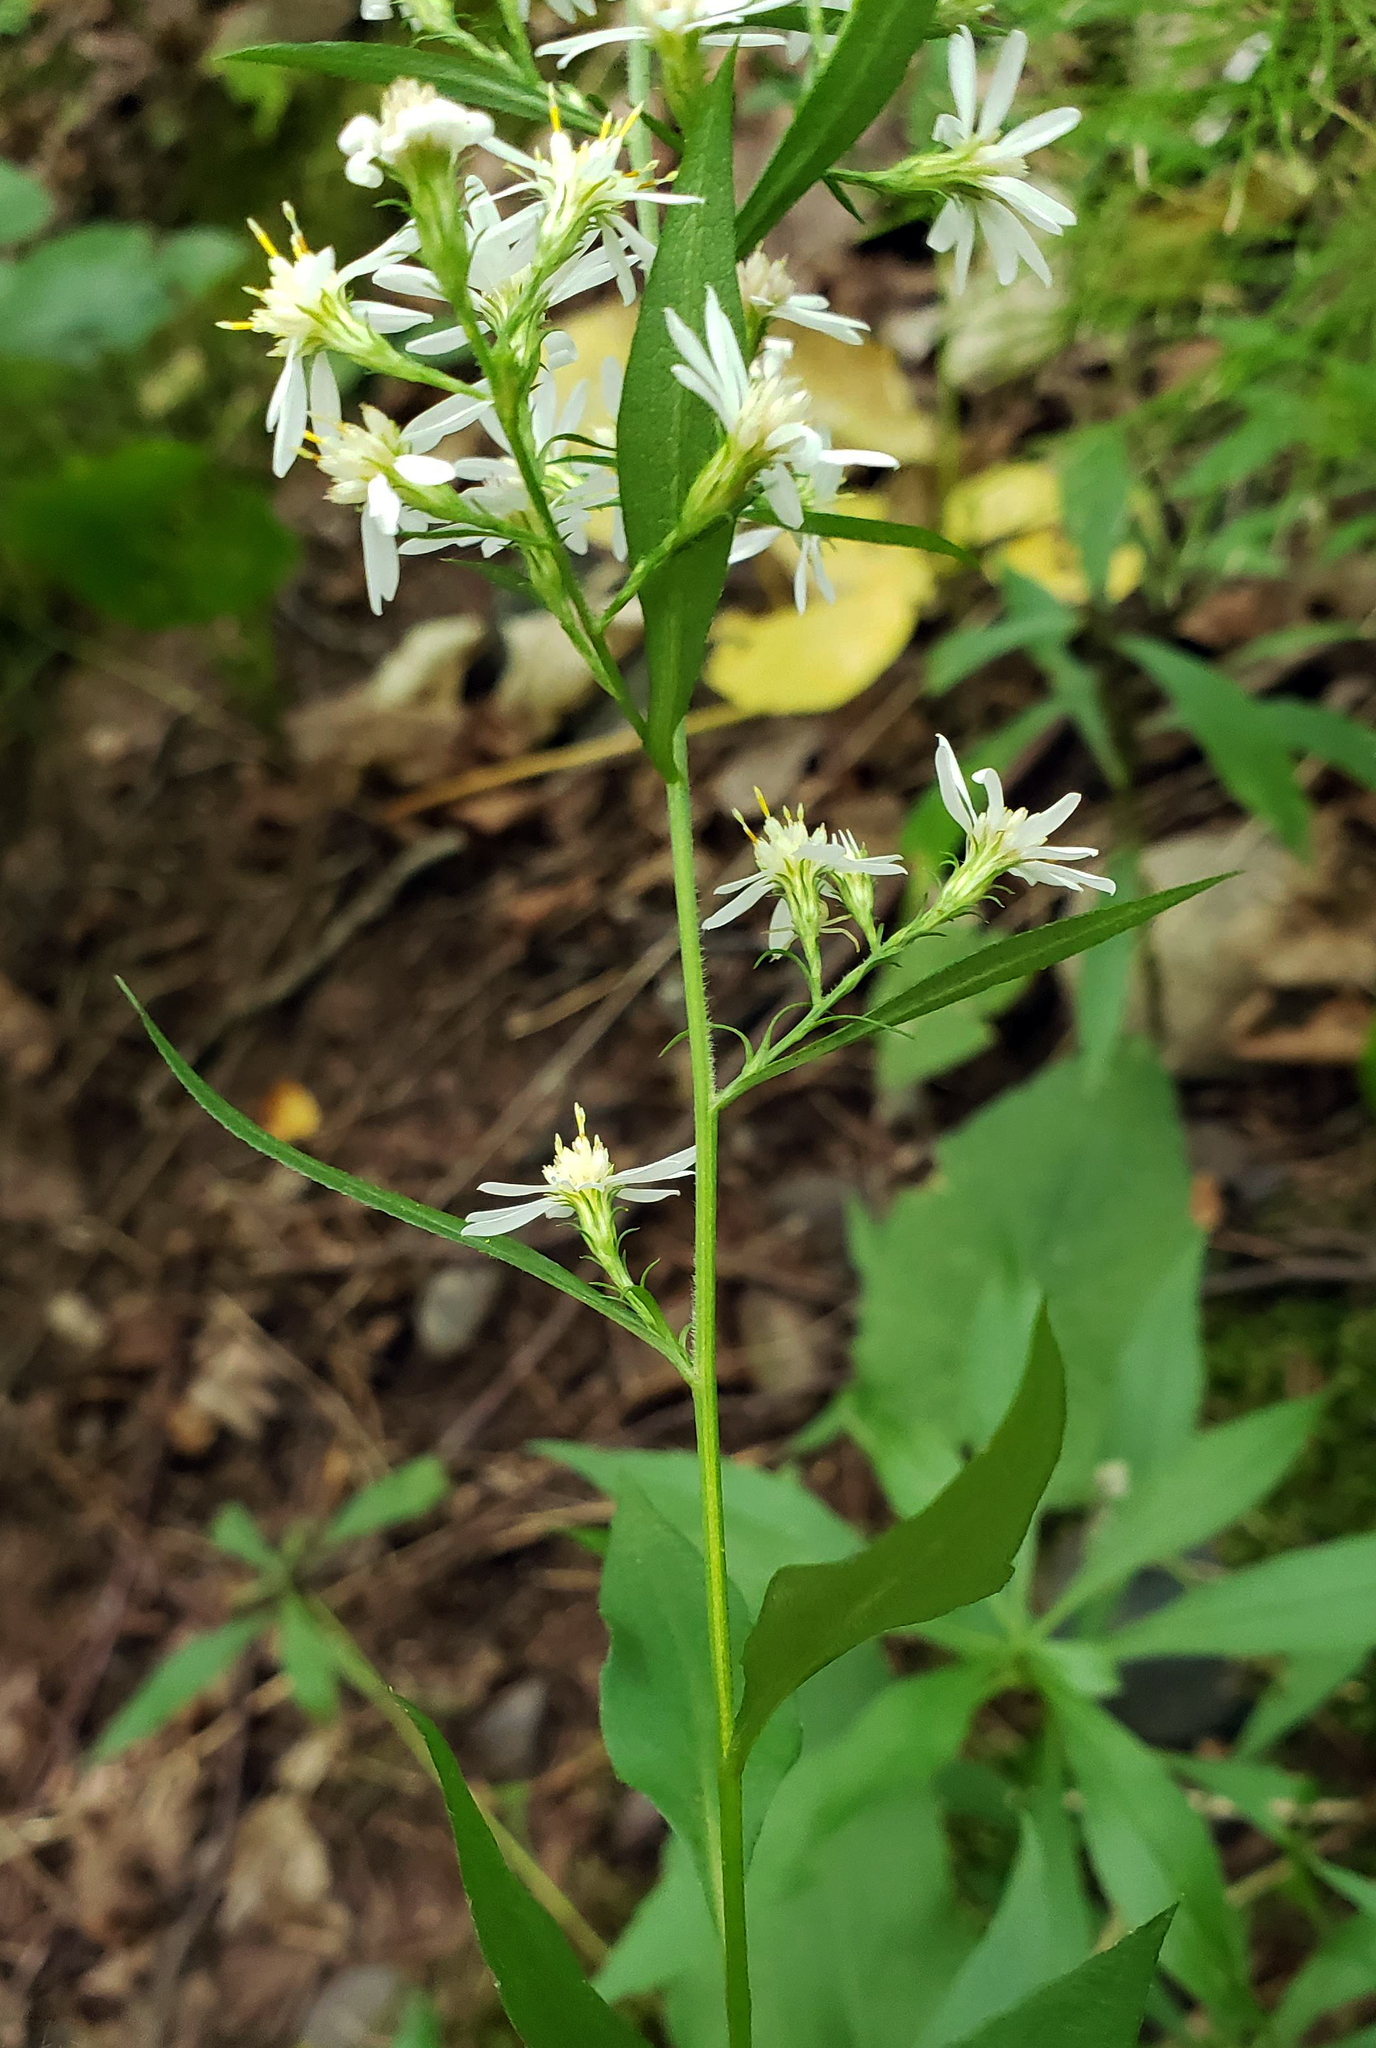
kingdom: Plantae
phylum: Tracheophyta
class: Magnoliopsida
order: Asterales
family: Asteraceae
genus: Symphyotrichum
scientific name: Symphyotrichum urophyllum
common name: Arrow-leaved aster
